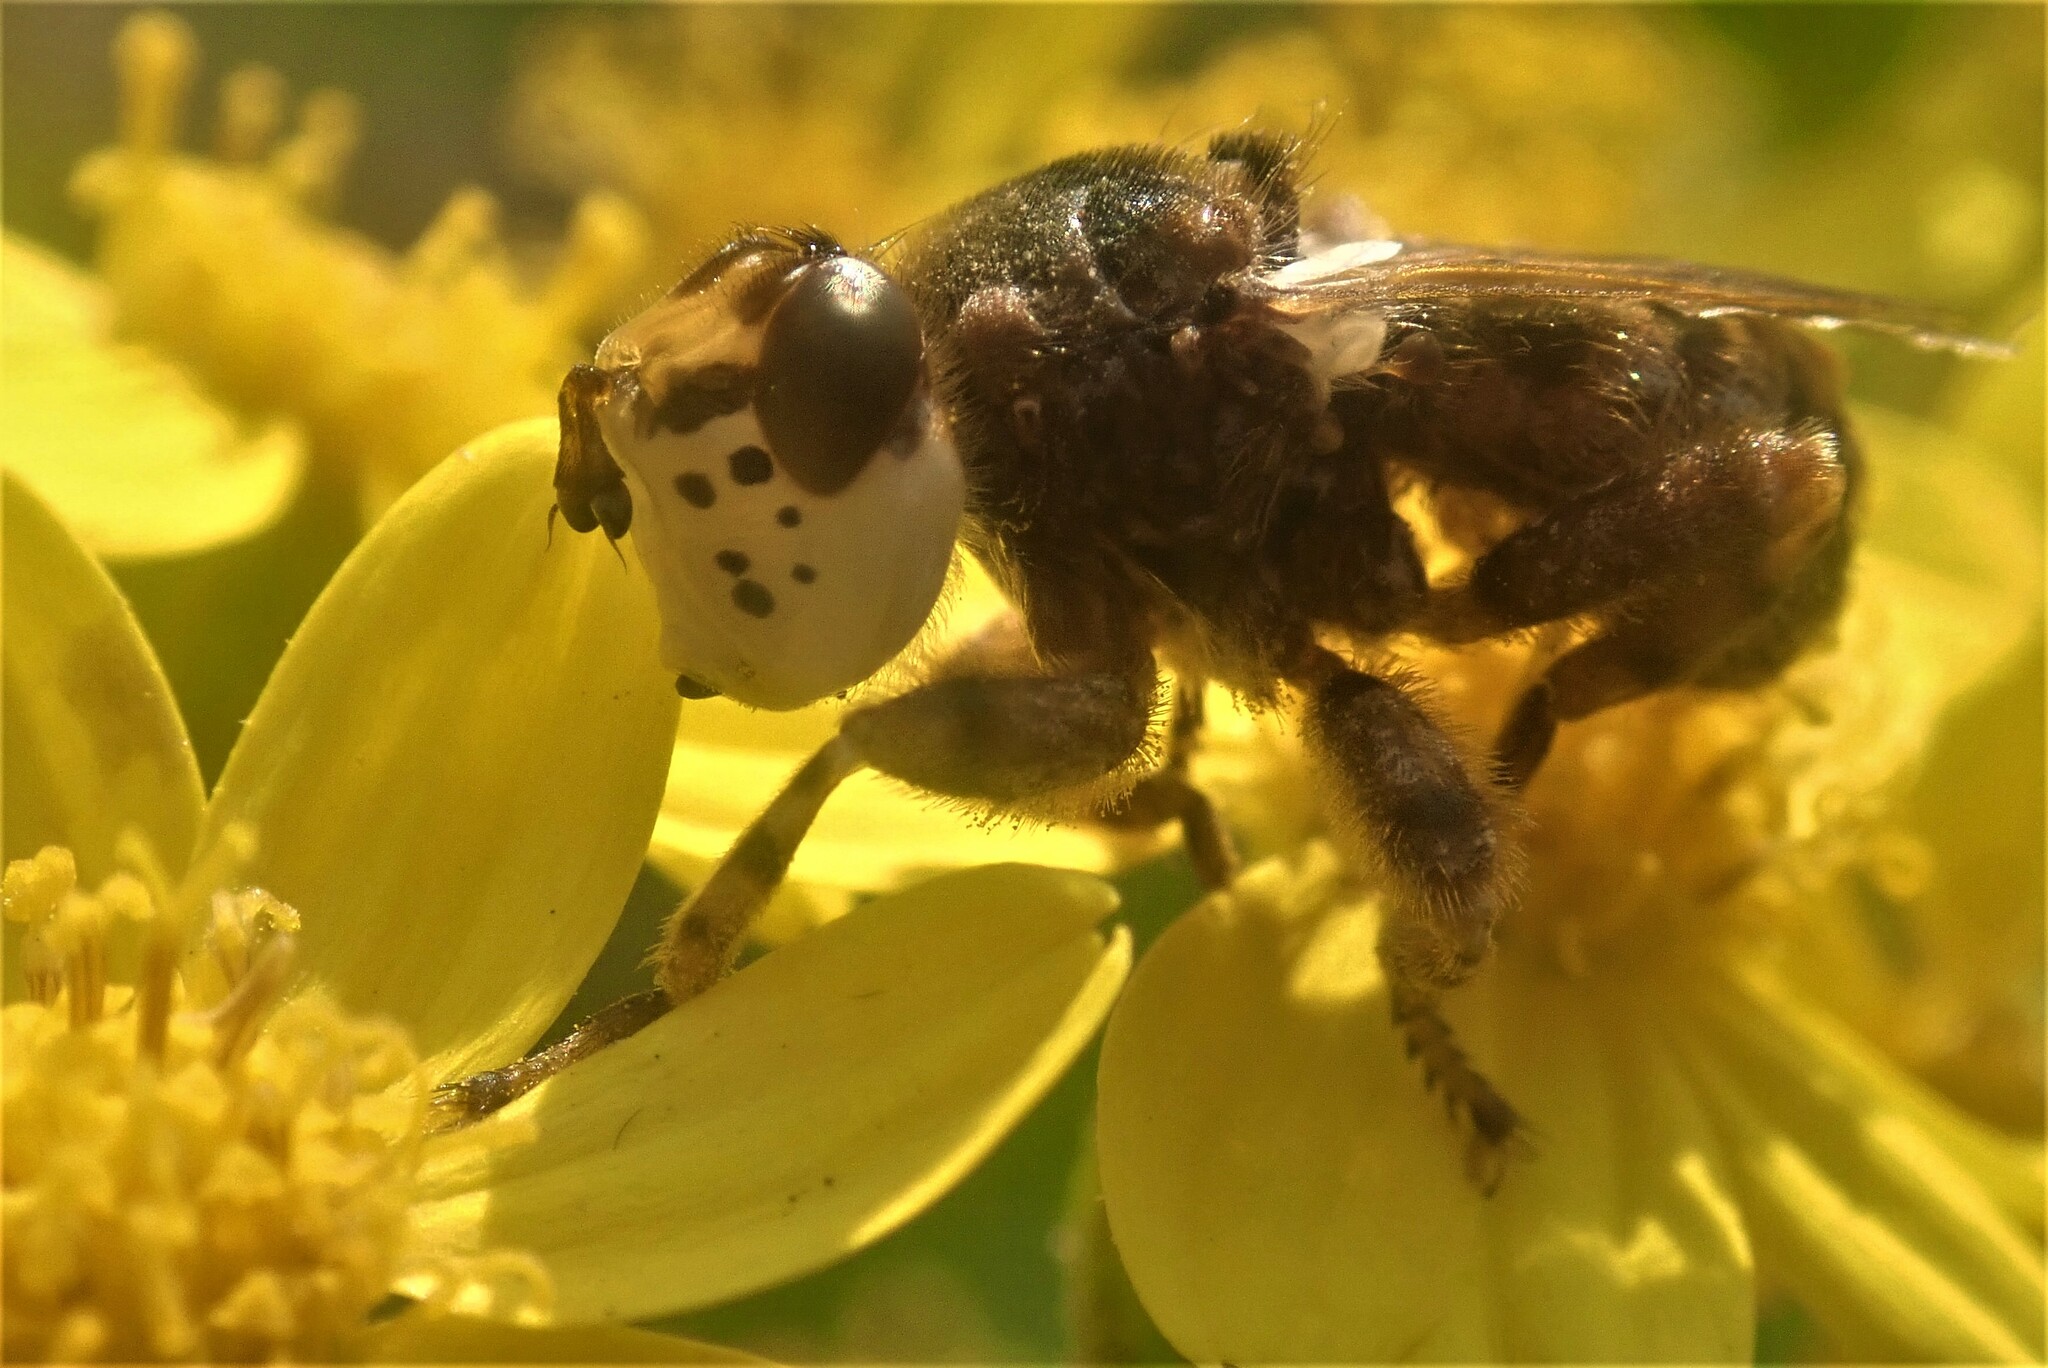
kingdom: Animalia
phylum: Arthropoda
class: Insecta
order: Diptera
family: Conopidae
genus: Paramyopa
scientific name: Paramyopa oestracea
